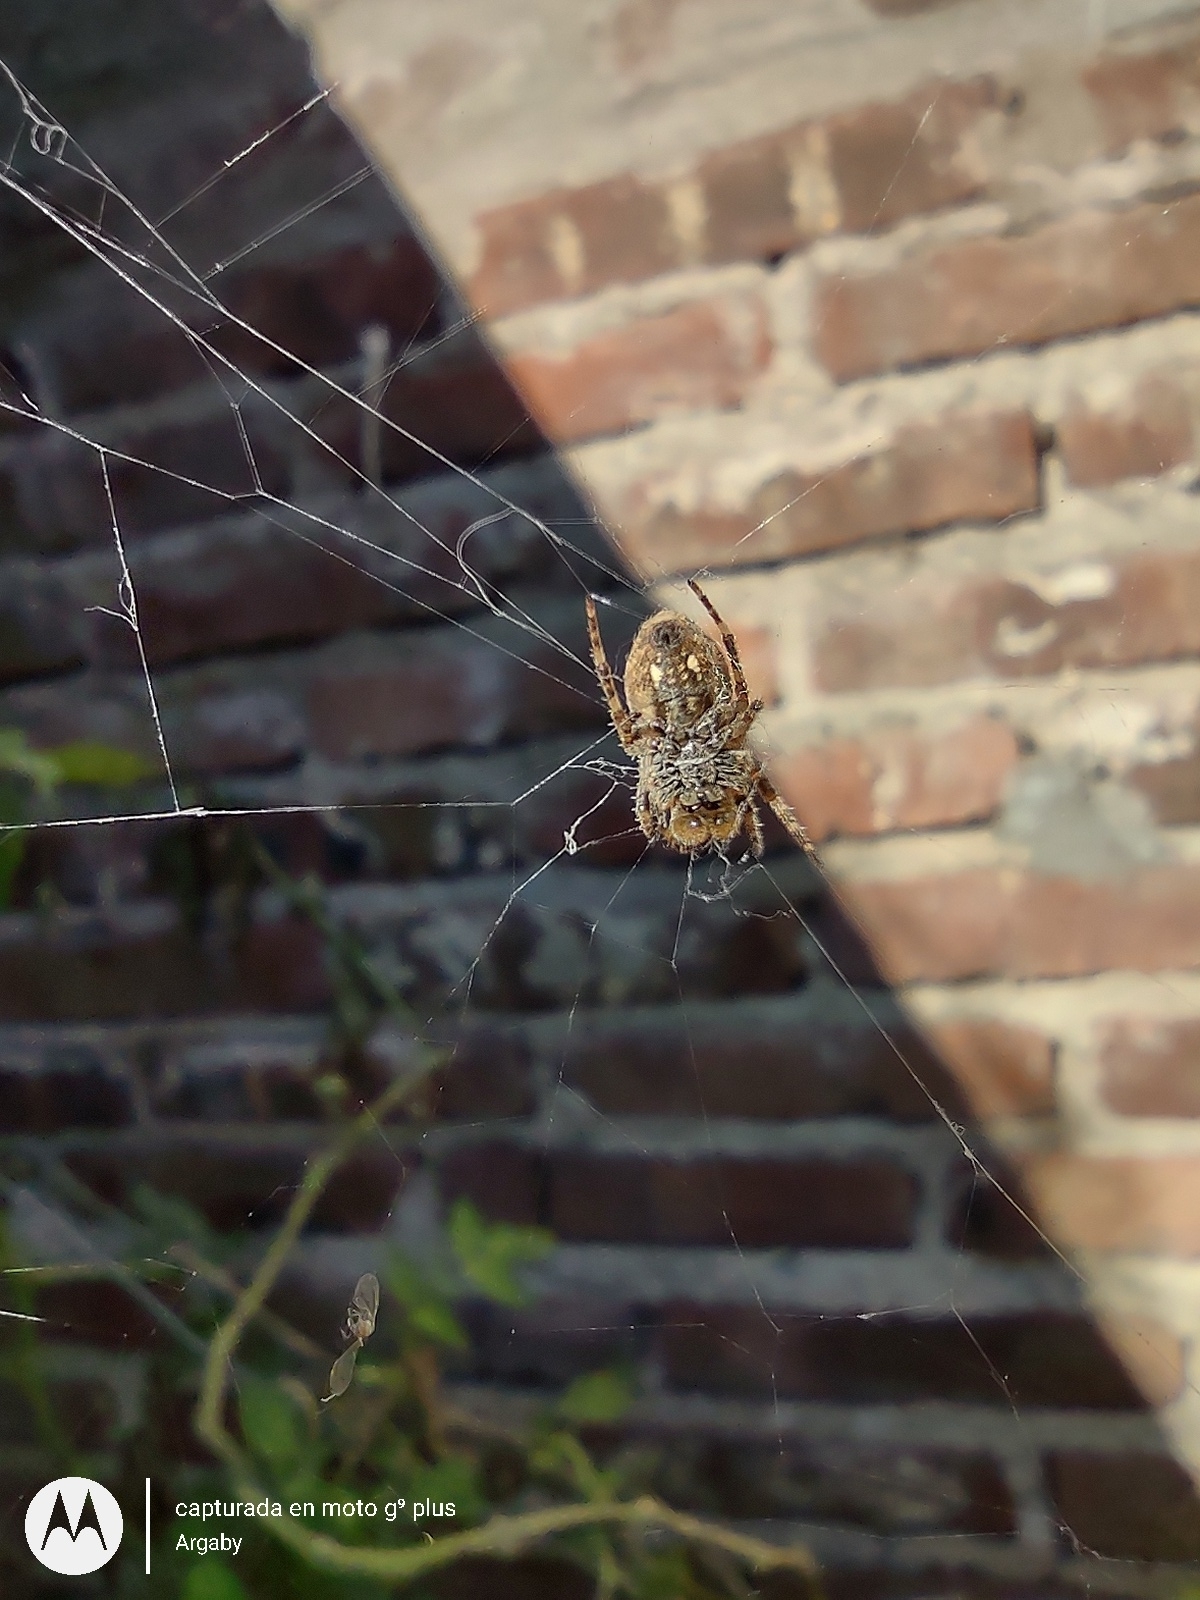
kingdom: Animalia
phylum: Arthropoda
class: Arachnida
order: Araneae
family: Araneidae
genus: Parawixia
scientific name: Parawixia audax
